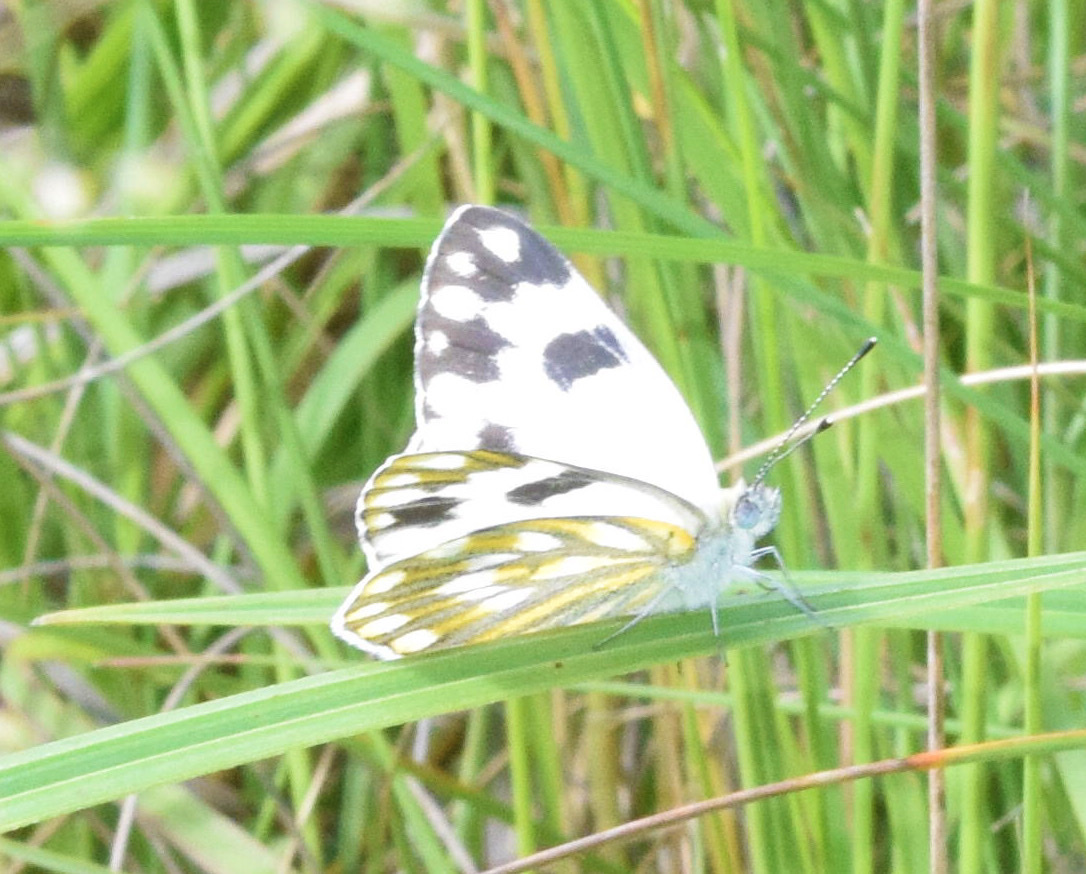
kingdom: Animalia
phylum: Arthropoda
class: Insecta
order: Lepidoptera
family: Pieridae
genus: Pontia
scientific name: Pontia helice
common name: Meadow white
